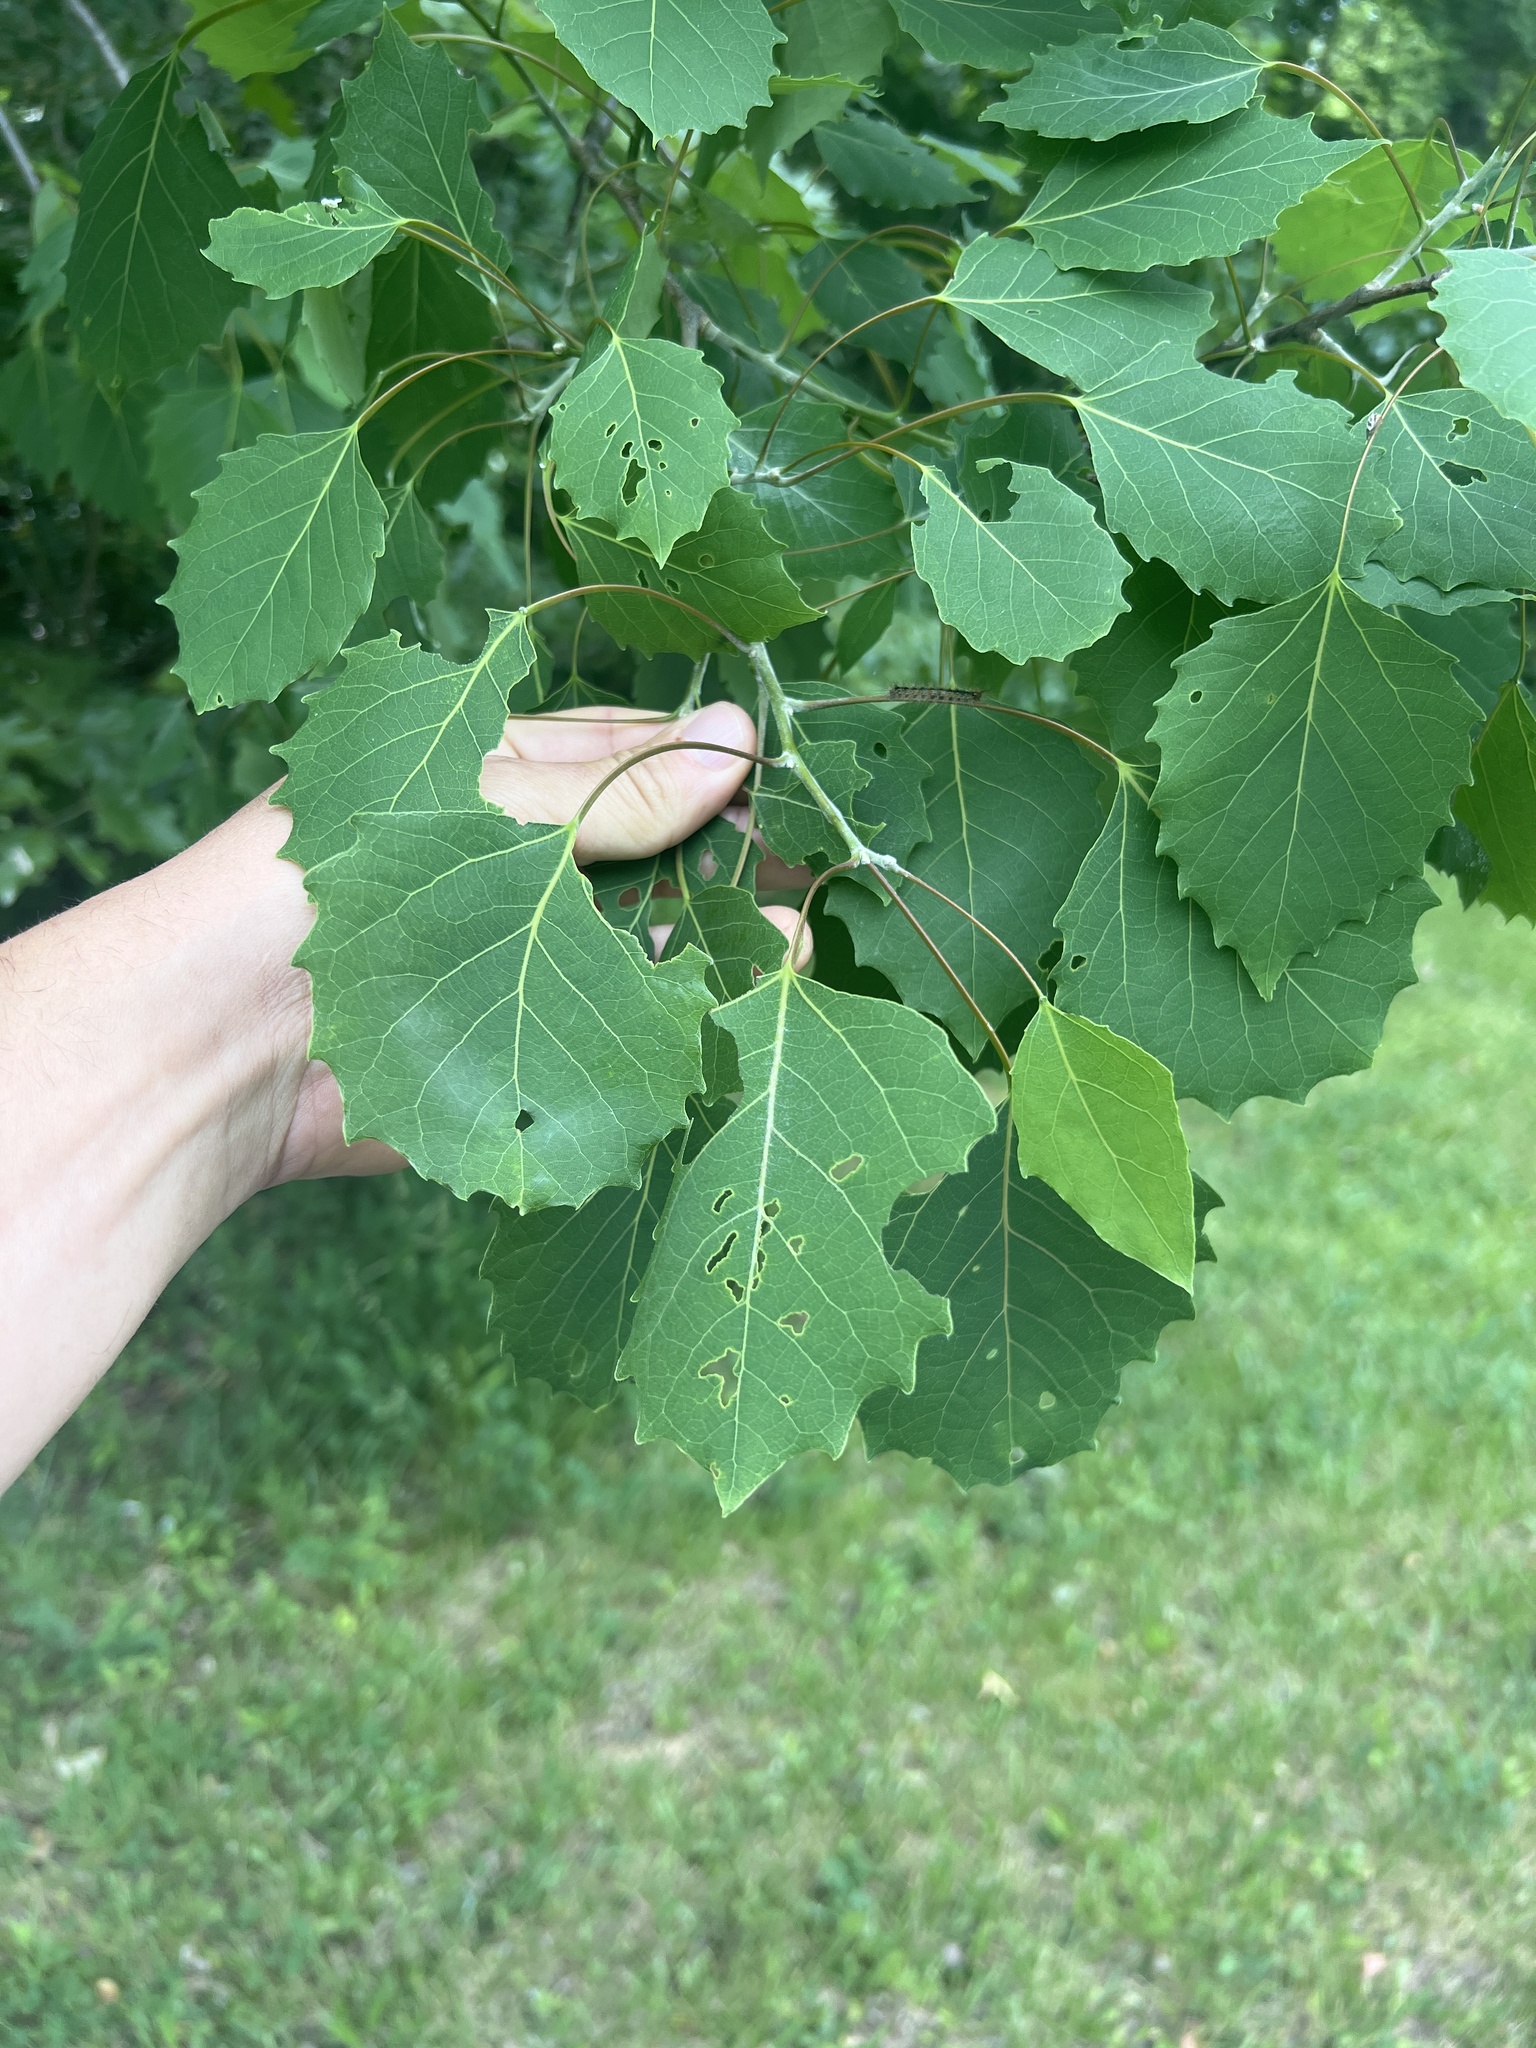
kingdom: Plantae
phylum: Tracheophyta
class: Magnoliopsida
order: Malpighiales
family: Salicaceae
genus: Populus
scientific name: Populus grandidentata
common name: Bigtooth aspen
